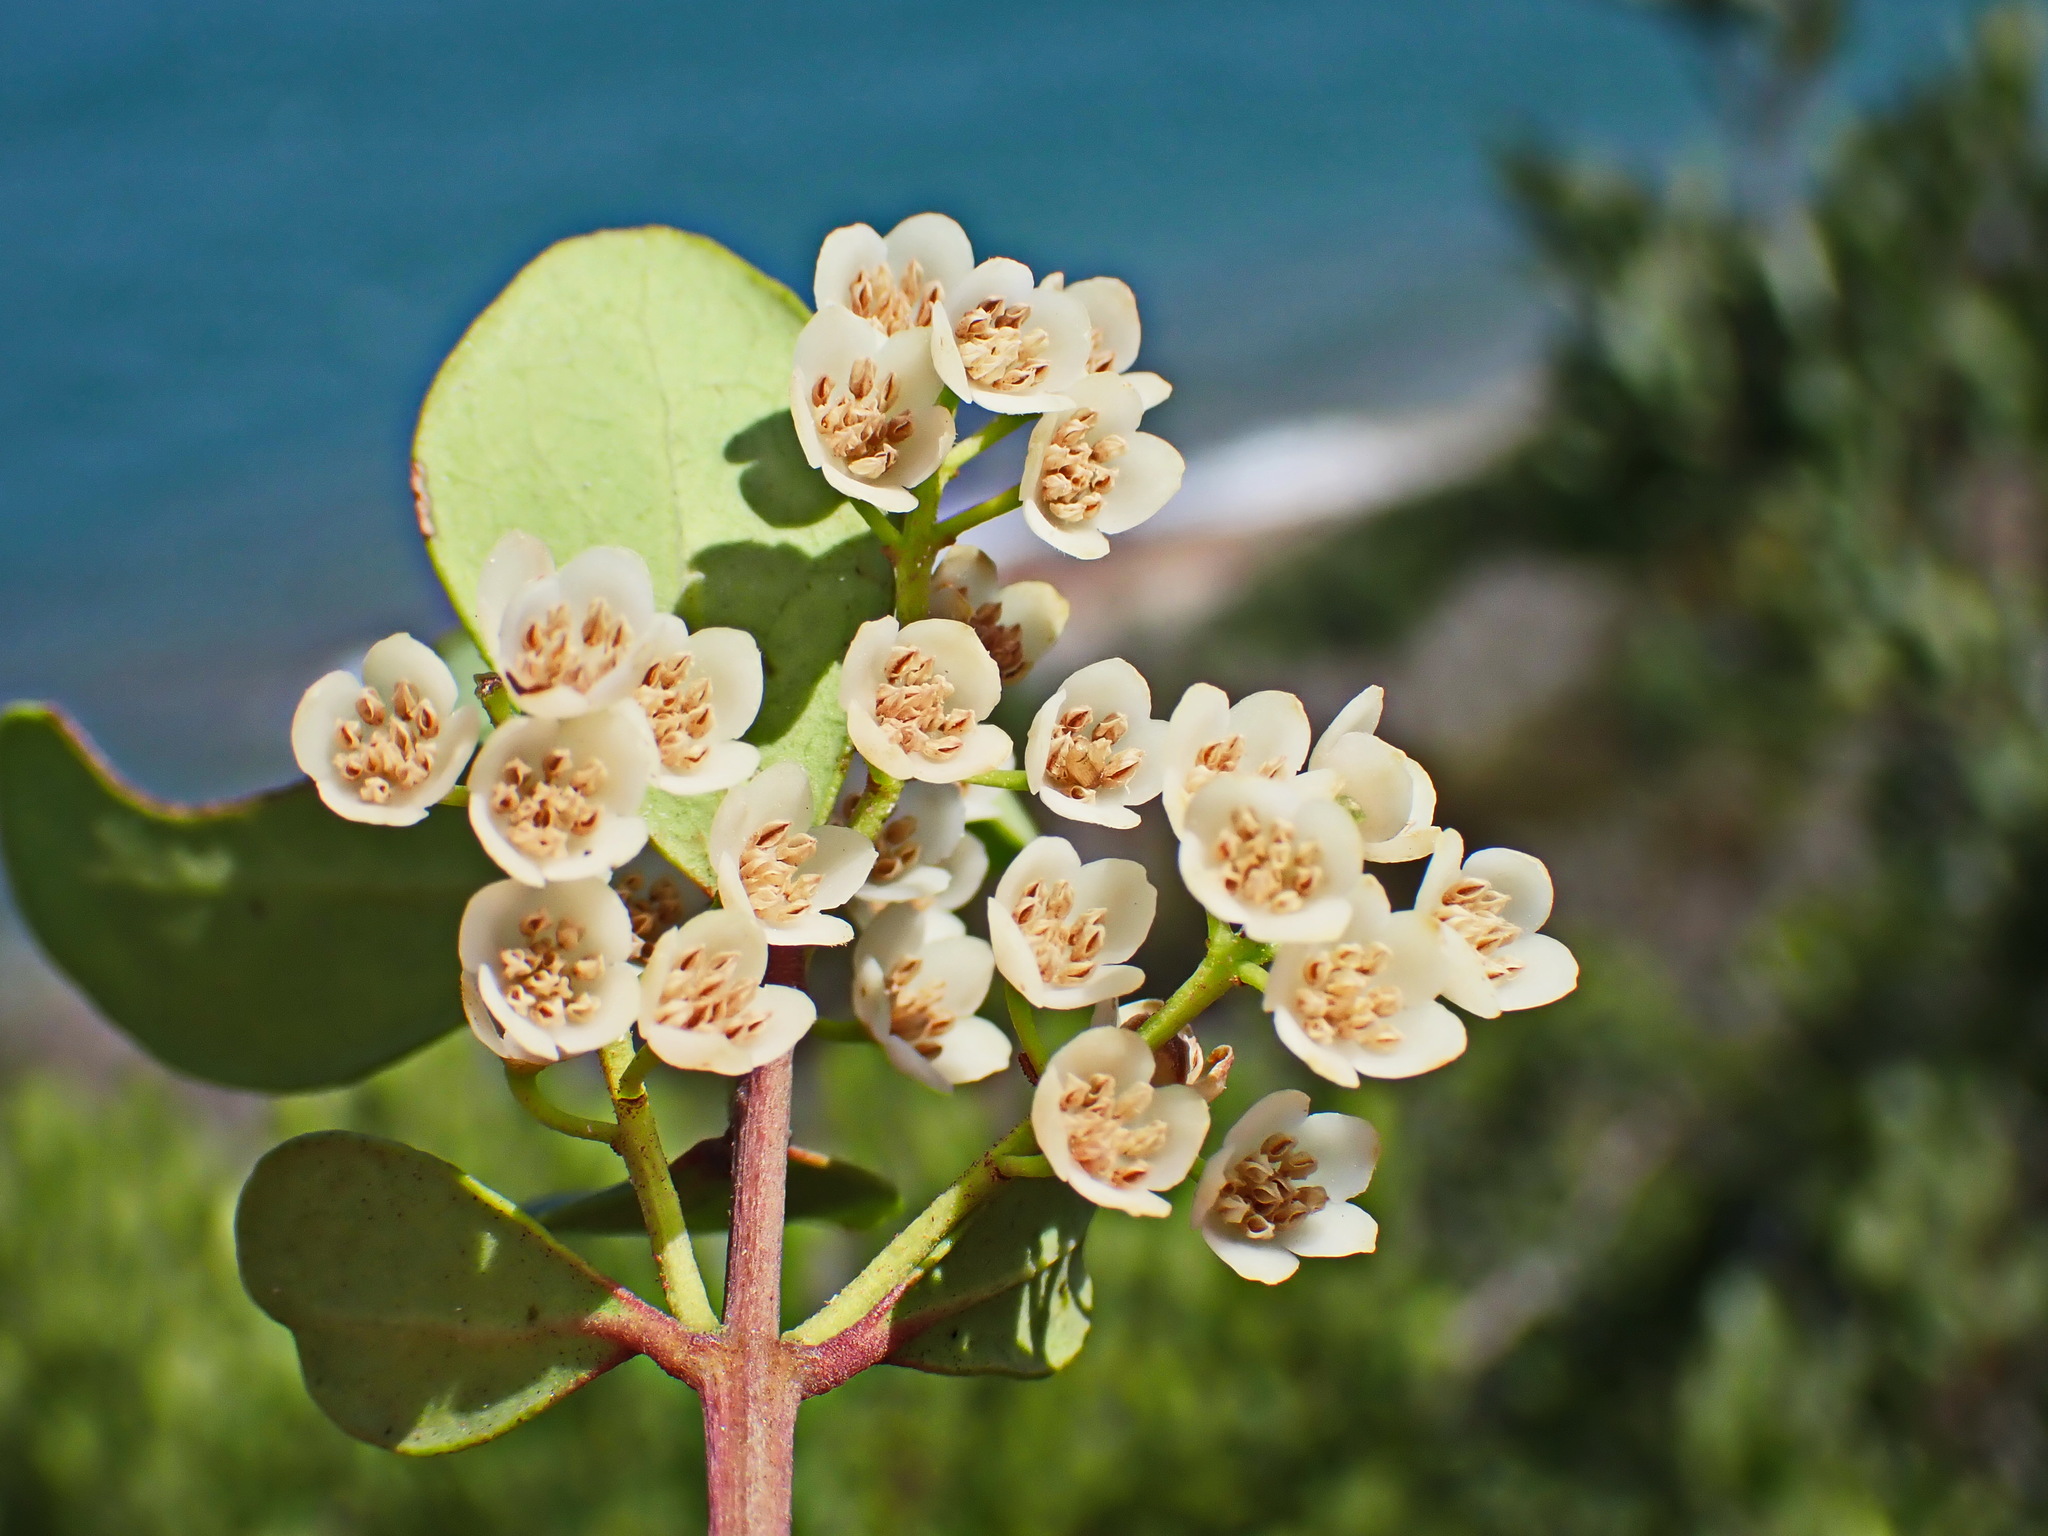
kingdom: Plantae
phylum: Tracheophyta
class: Magnoliopsida
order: Ericales
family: Ebenaceae
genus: Euclea
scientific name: Euclea racemosa
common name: Dune guarri
